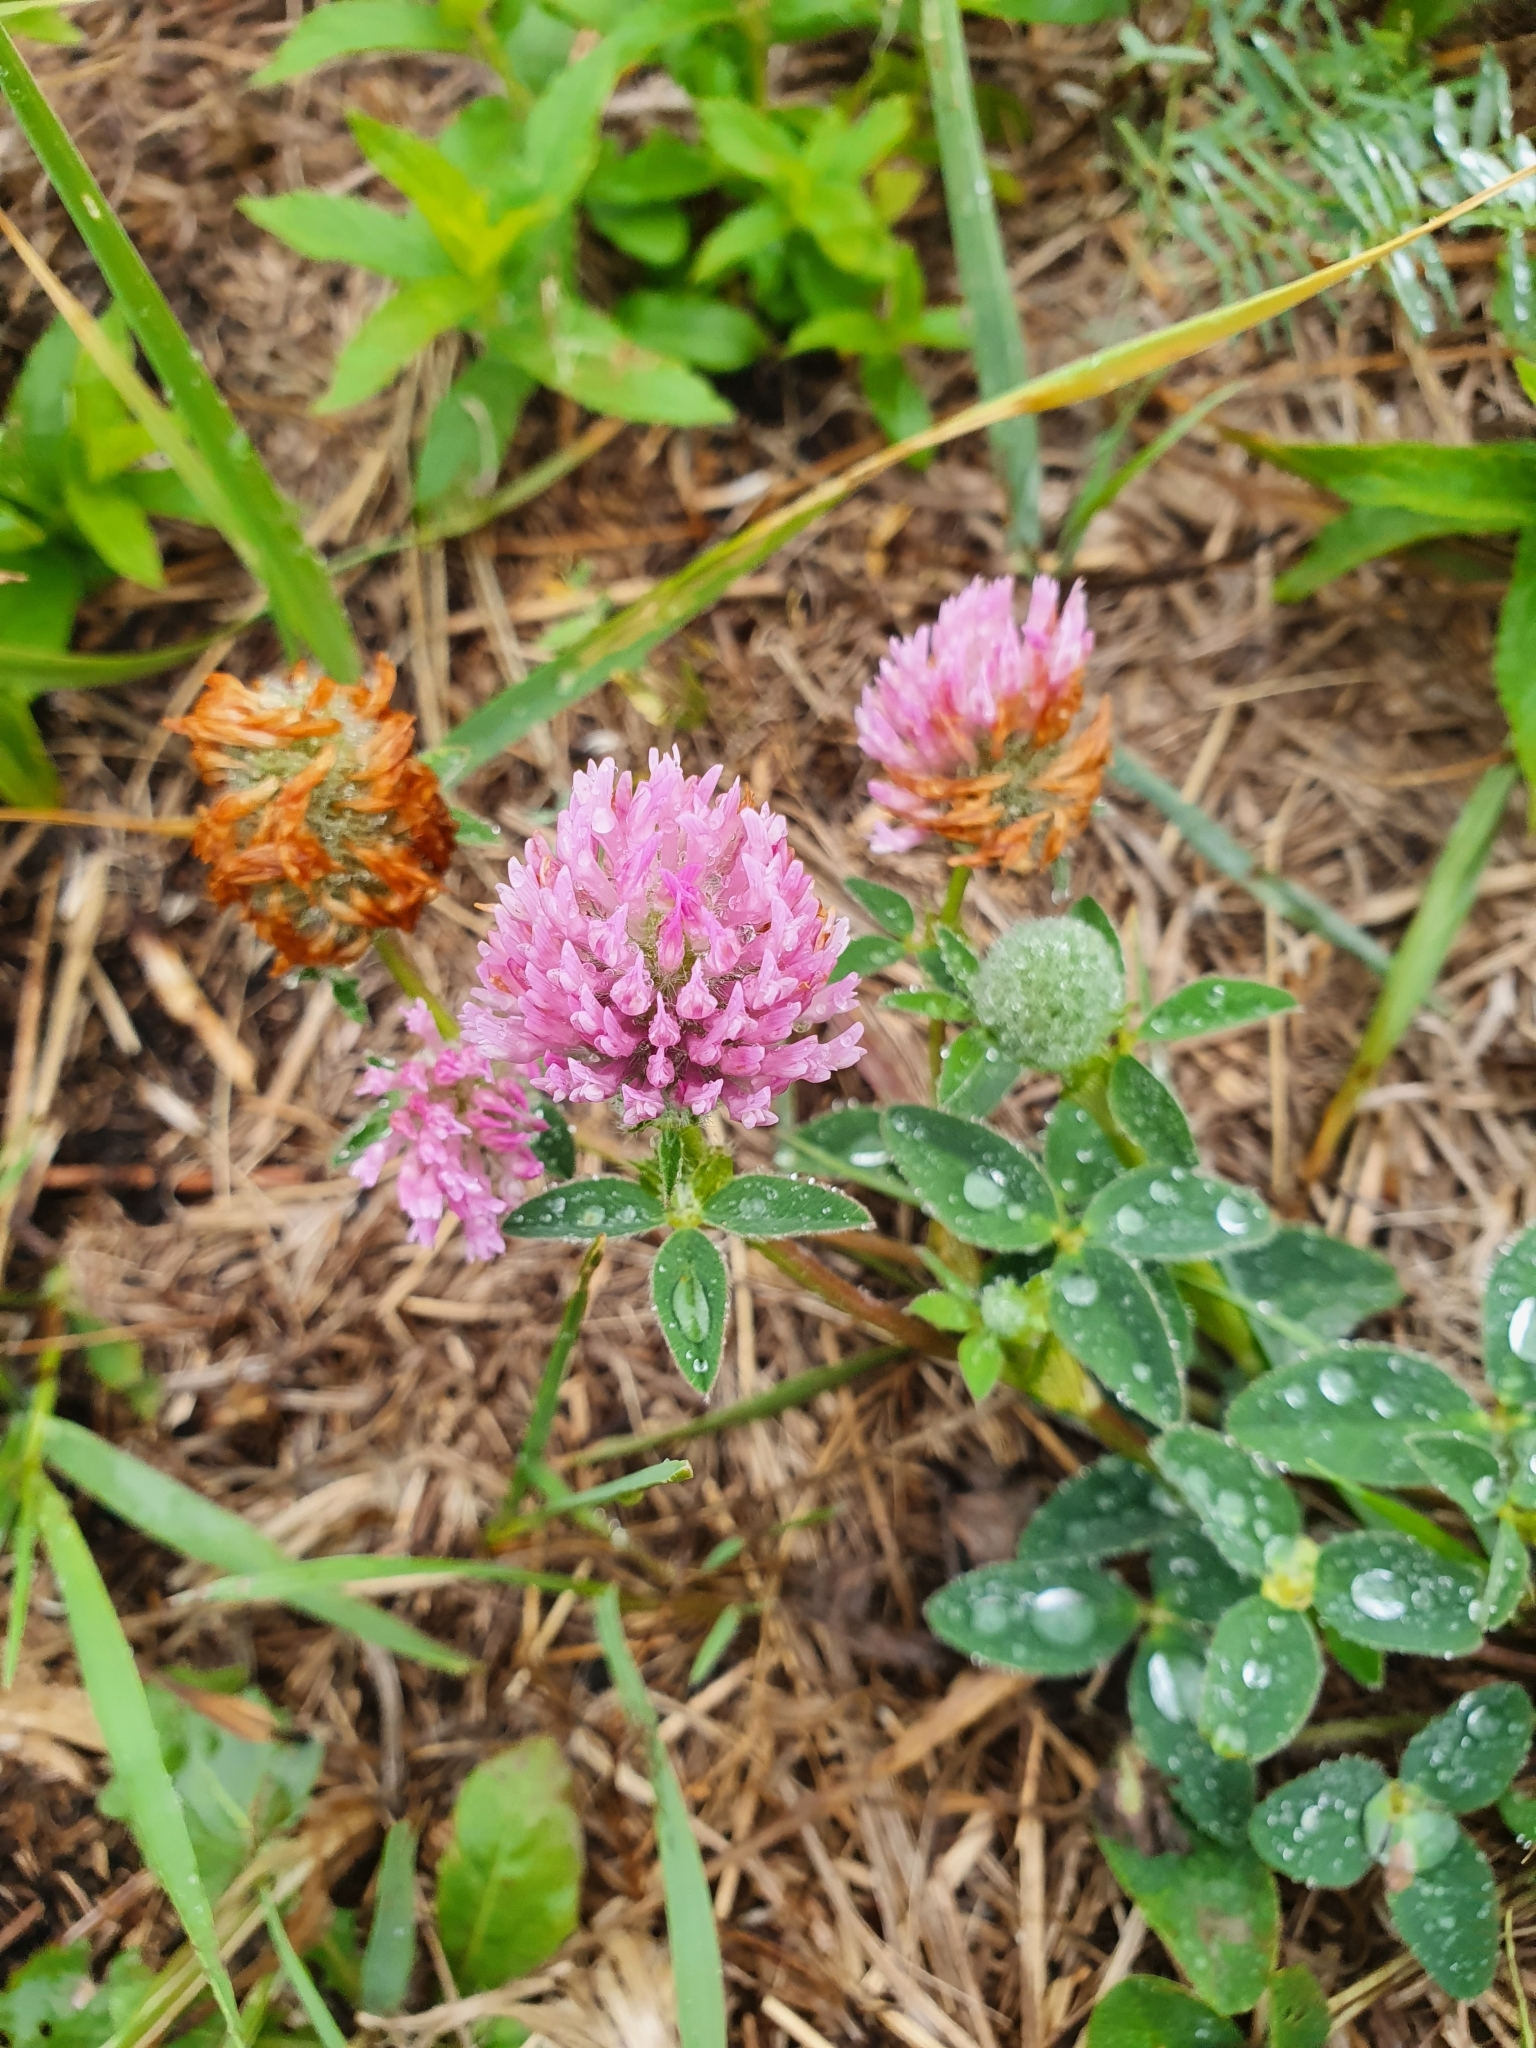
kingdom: Plantae
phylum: Tracheophyta
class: Magnoliopsida
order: Fabales
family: Fabaceae
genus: Trifolium
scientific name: Trifolium pratense
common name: Red clover
